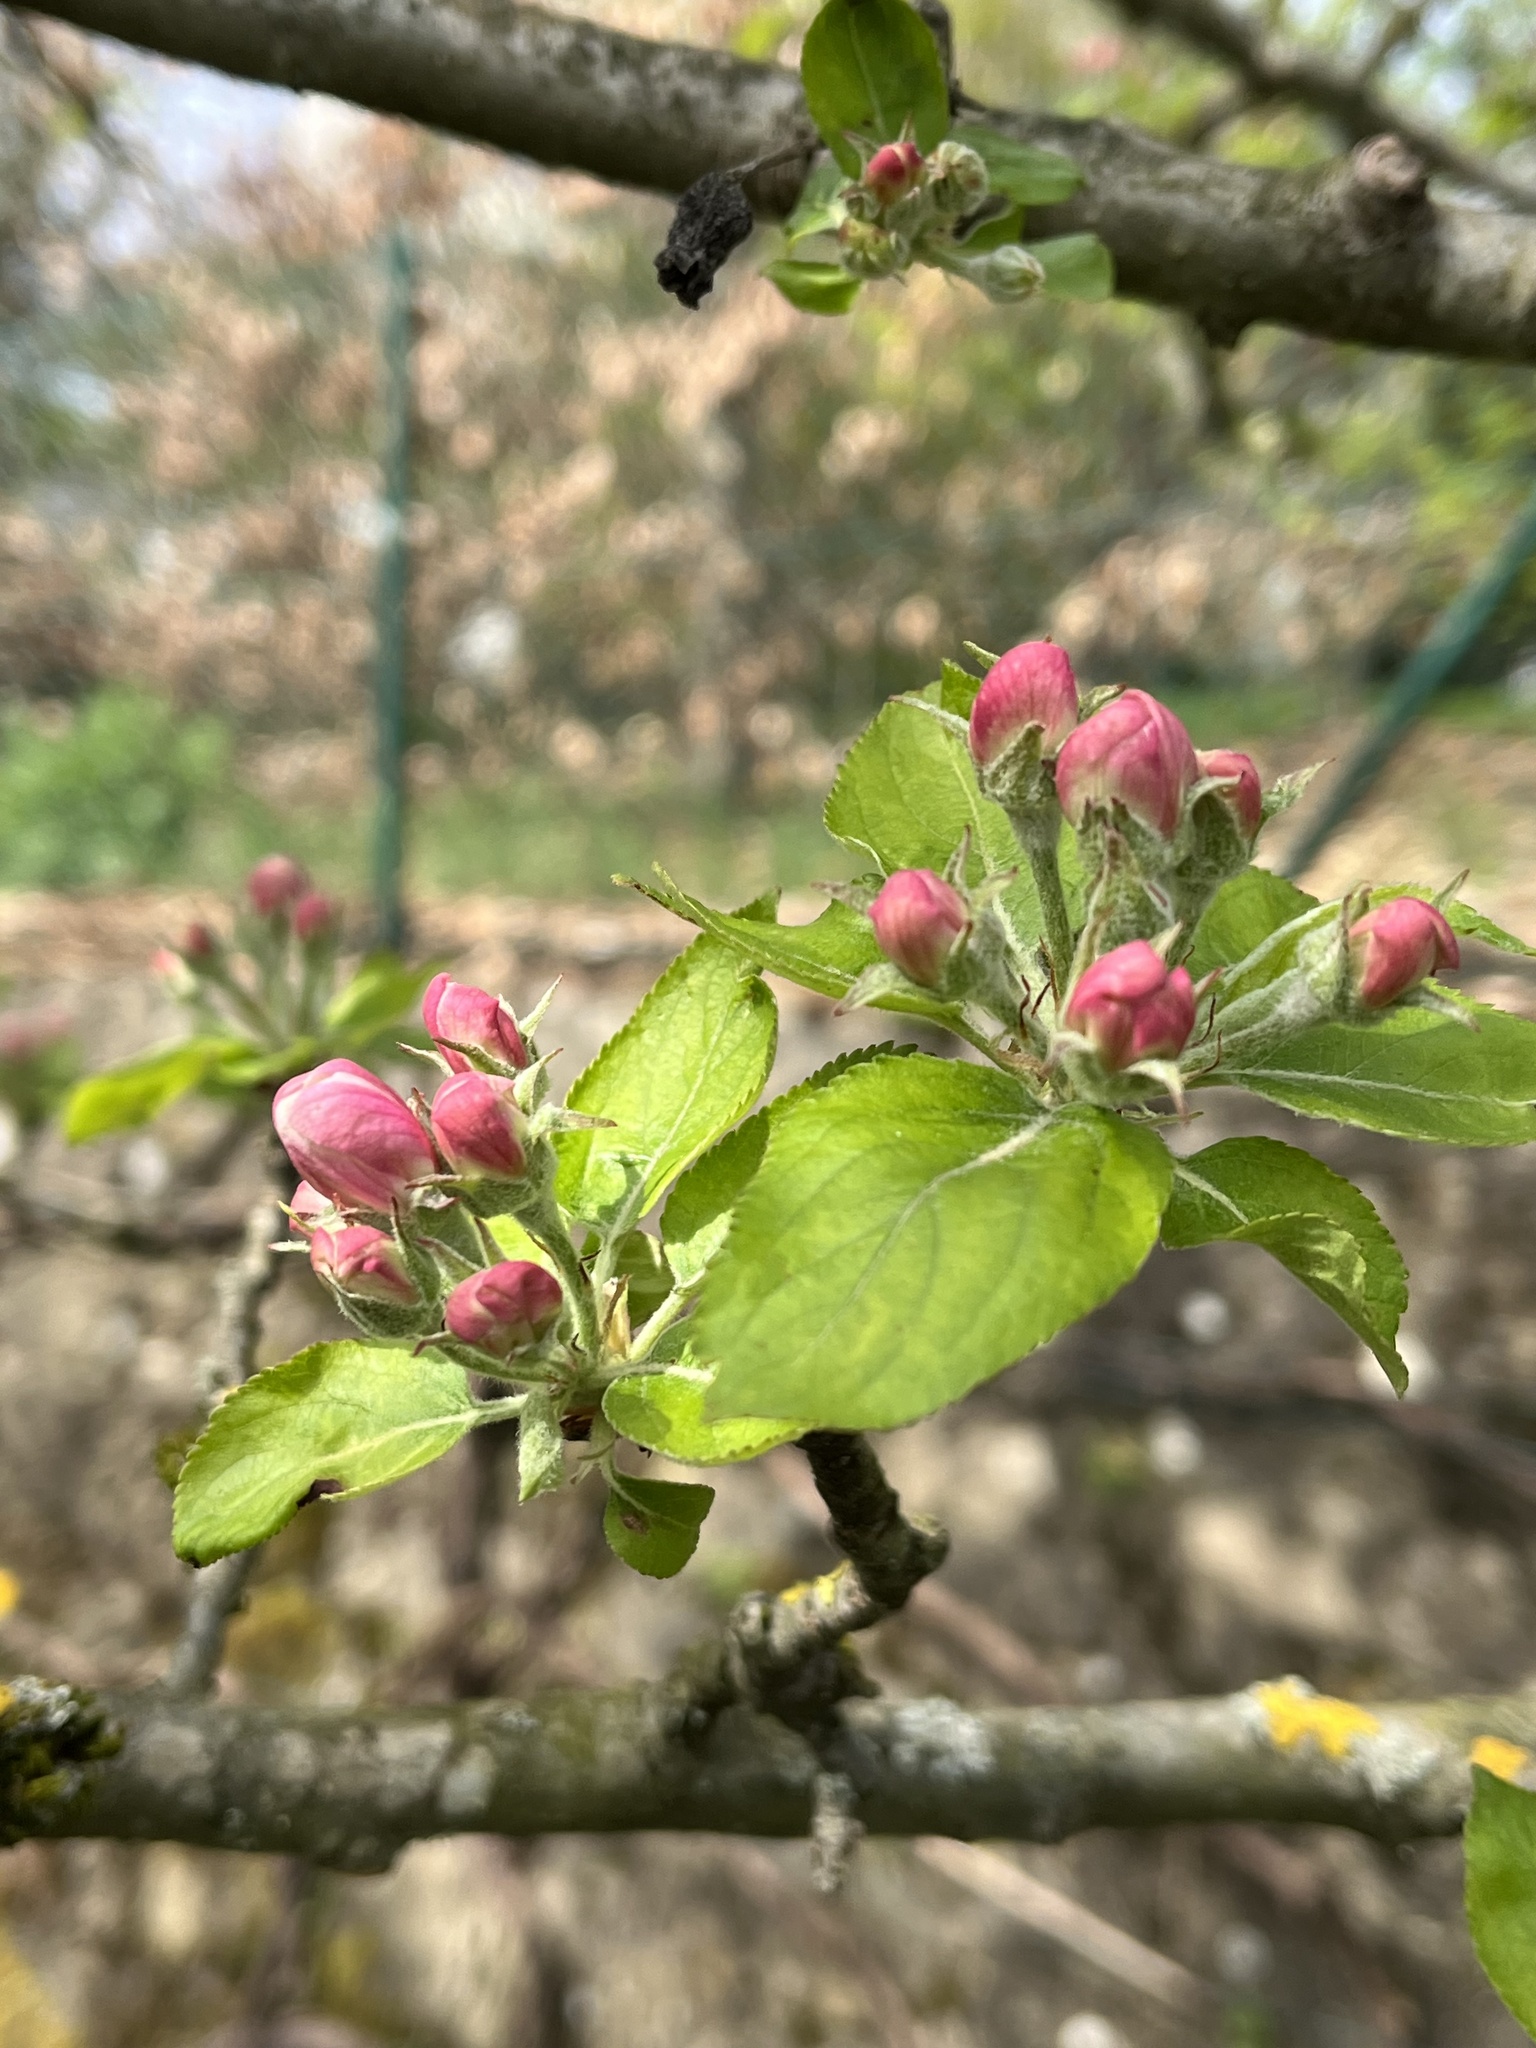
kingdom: Plantae
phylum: Tracheophyta
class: Magnoliopsida
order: Rosales
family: Rosaceae
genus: Malus
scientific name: Malus domestica
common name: Apple
